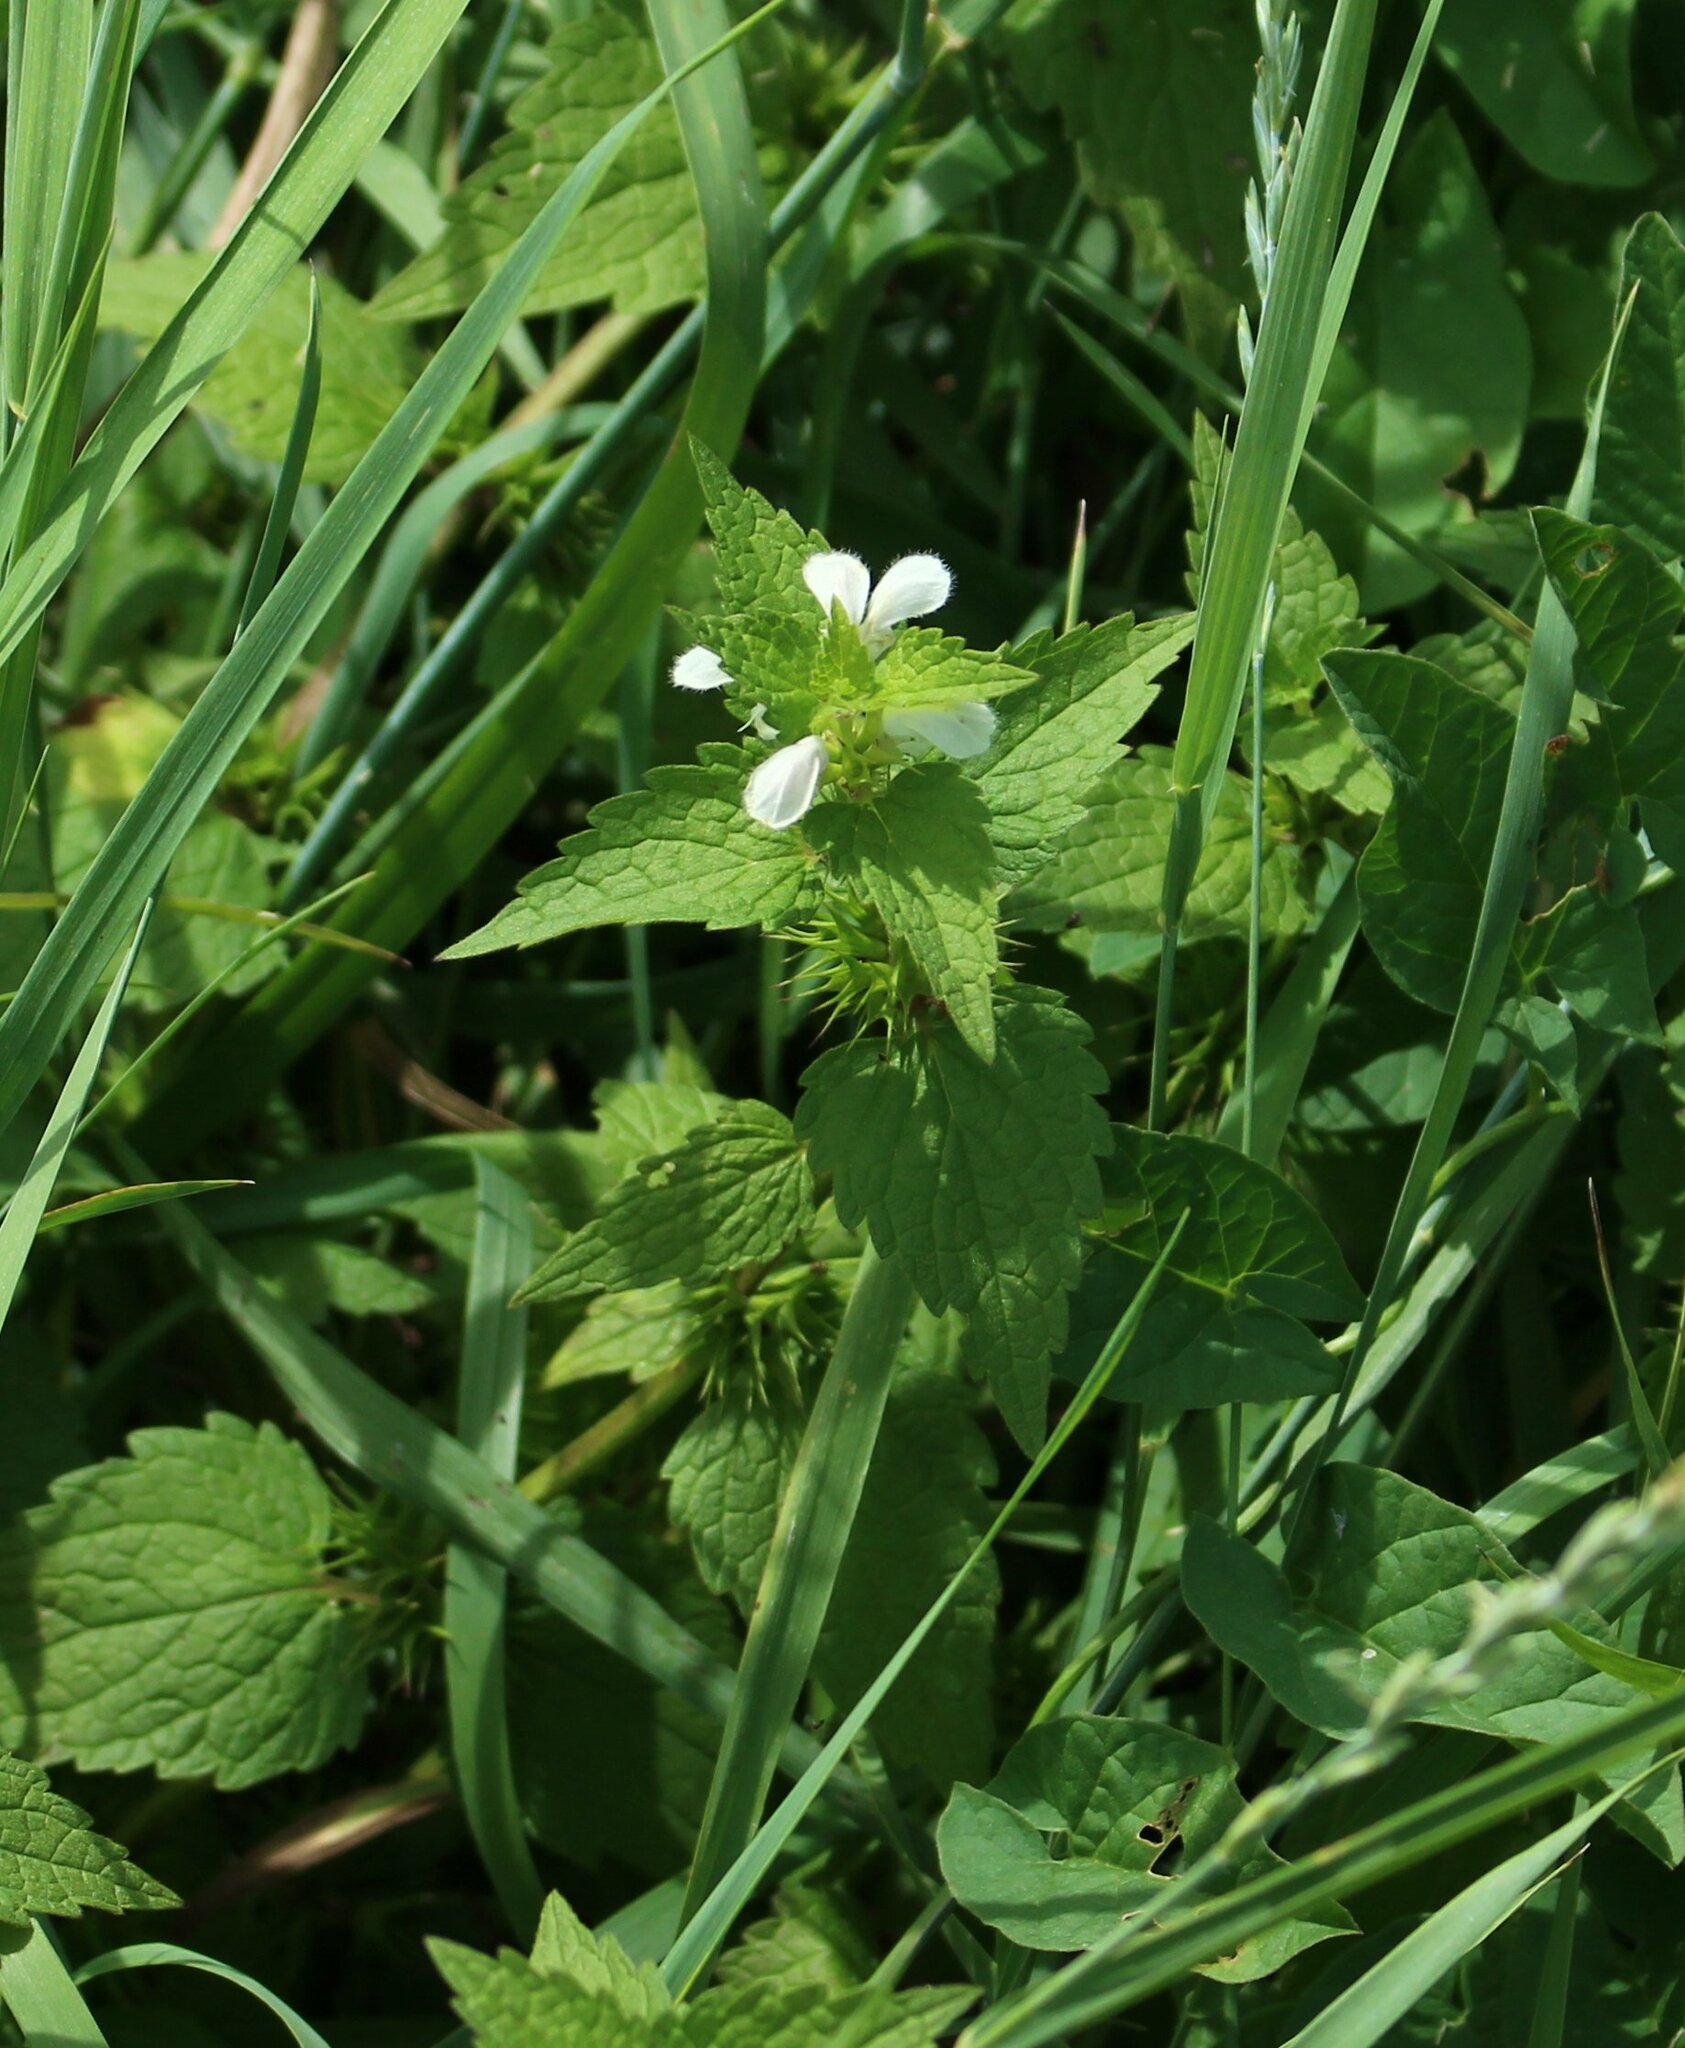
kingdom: Plantae
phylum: Tracheophyta
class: Magnoliopsida
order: Lamiales
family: Lamiaceae
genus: Lamium
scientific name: Lamium album
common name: White dead-nettle
